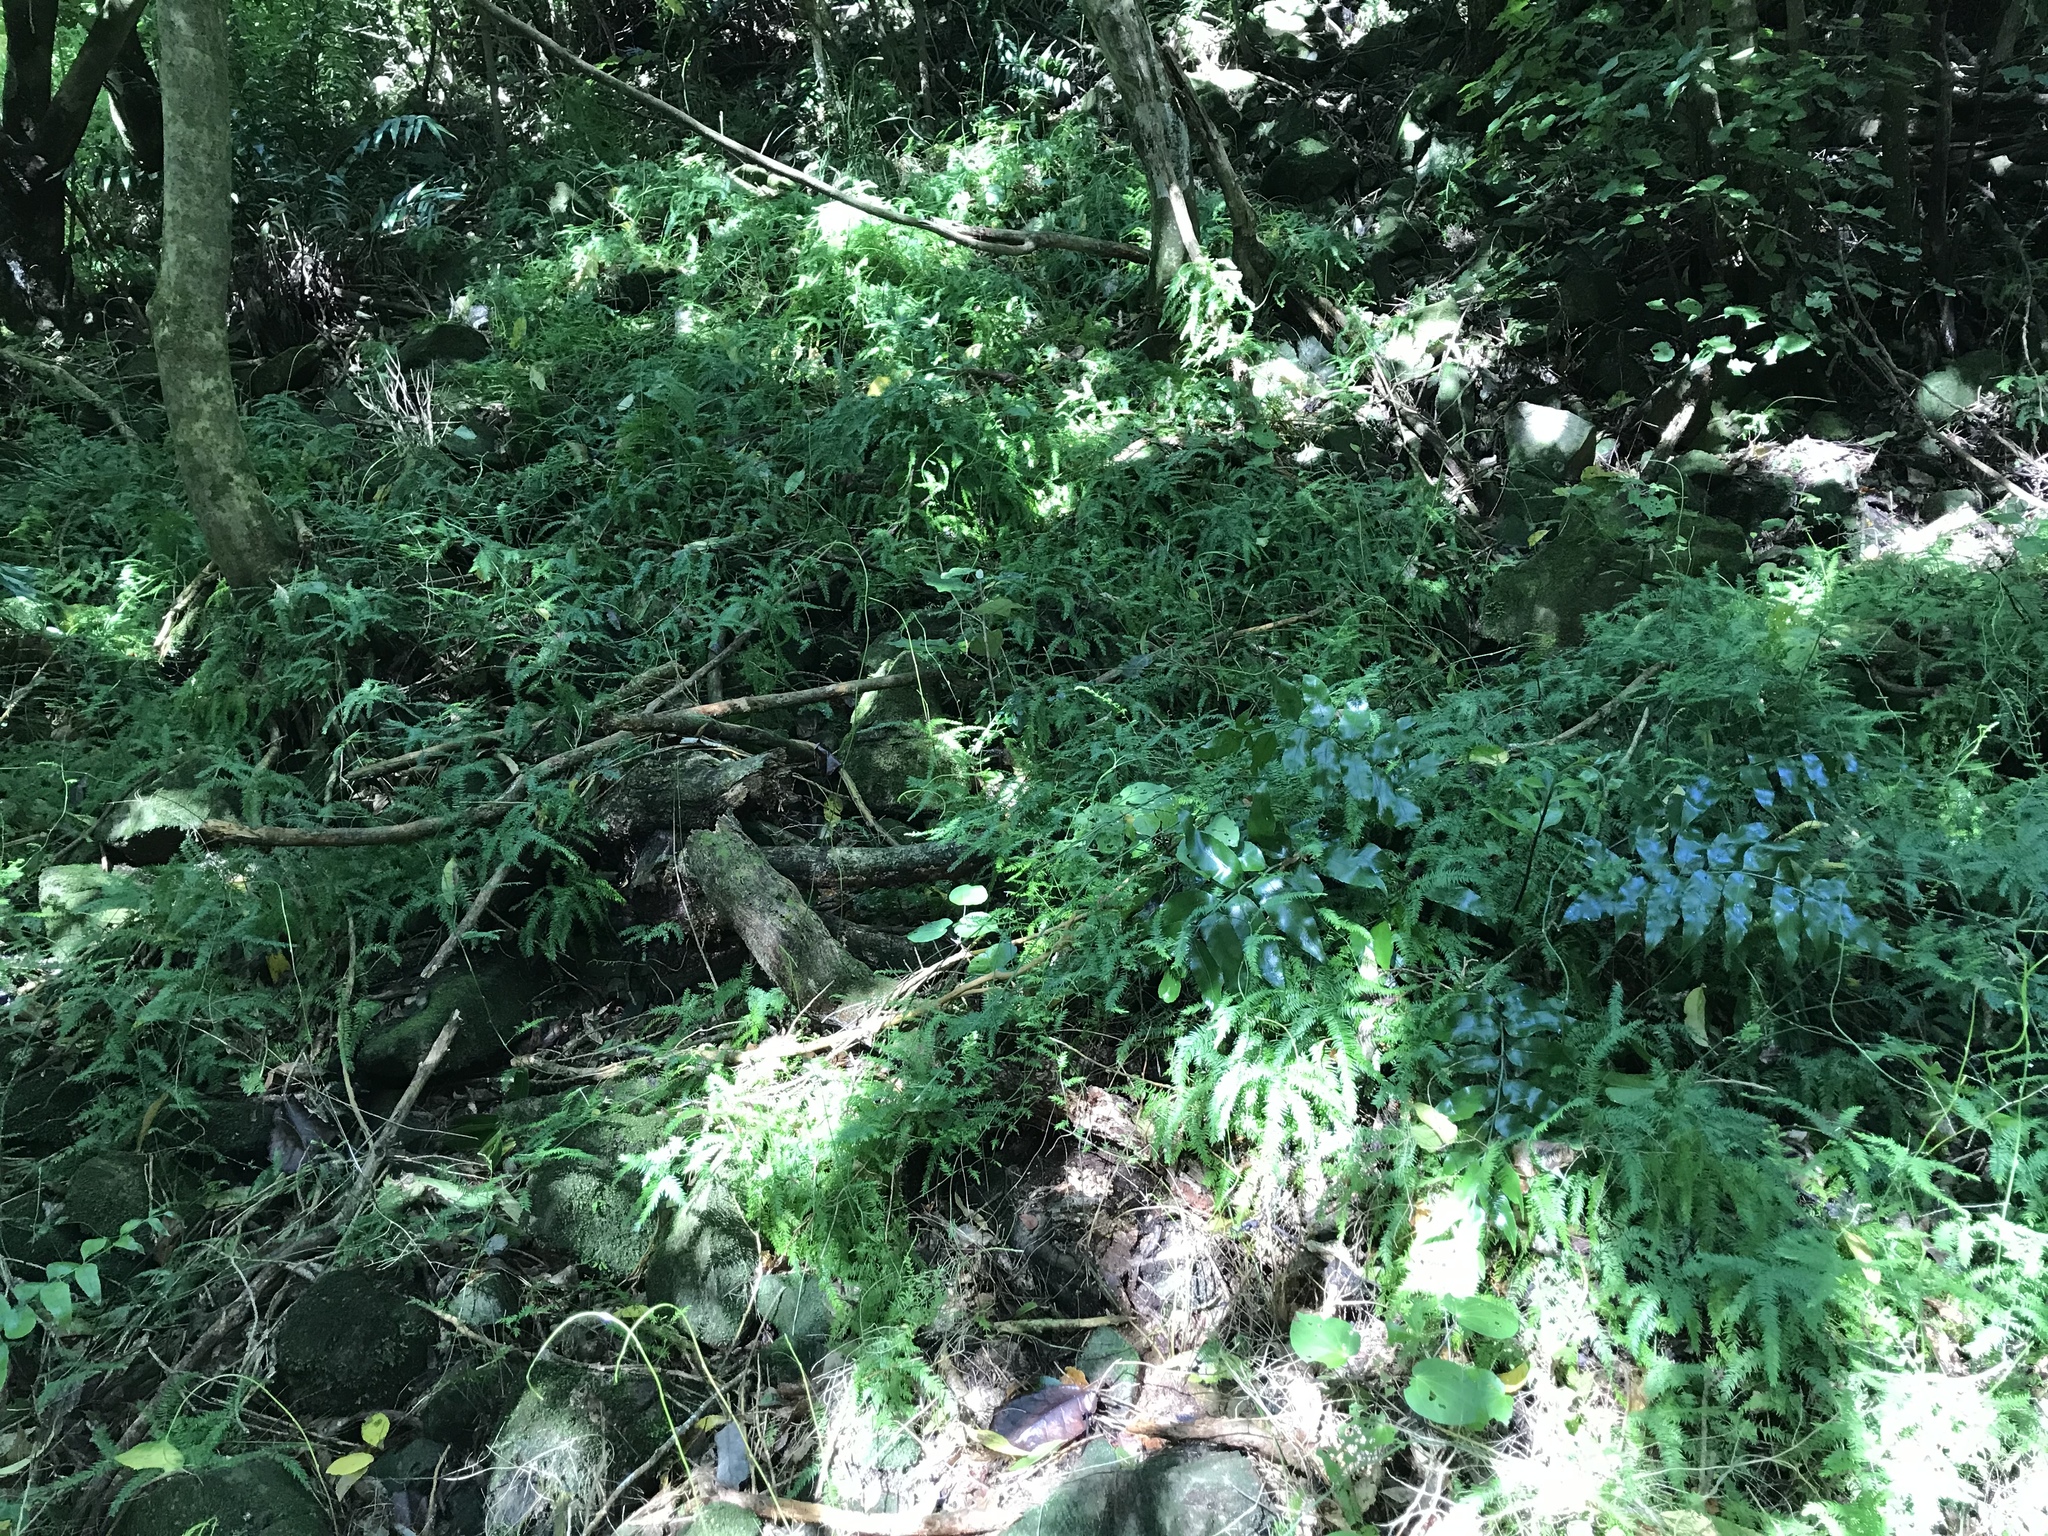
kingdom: Plantae
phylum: Tracheophyta
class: Liliopsida
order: Asparagales
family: Asparagaceae
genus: Asparagus
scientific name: Asparagus scandens
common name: Asparagus-fern
